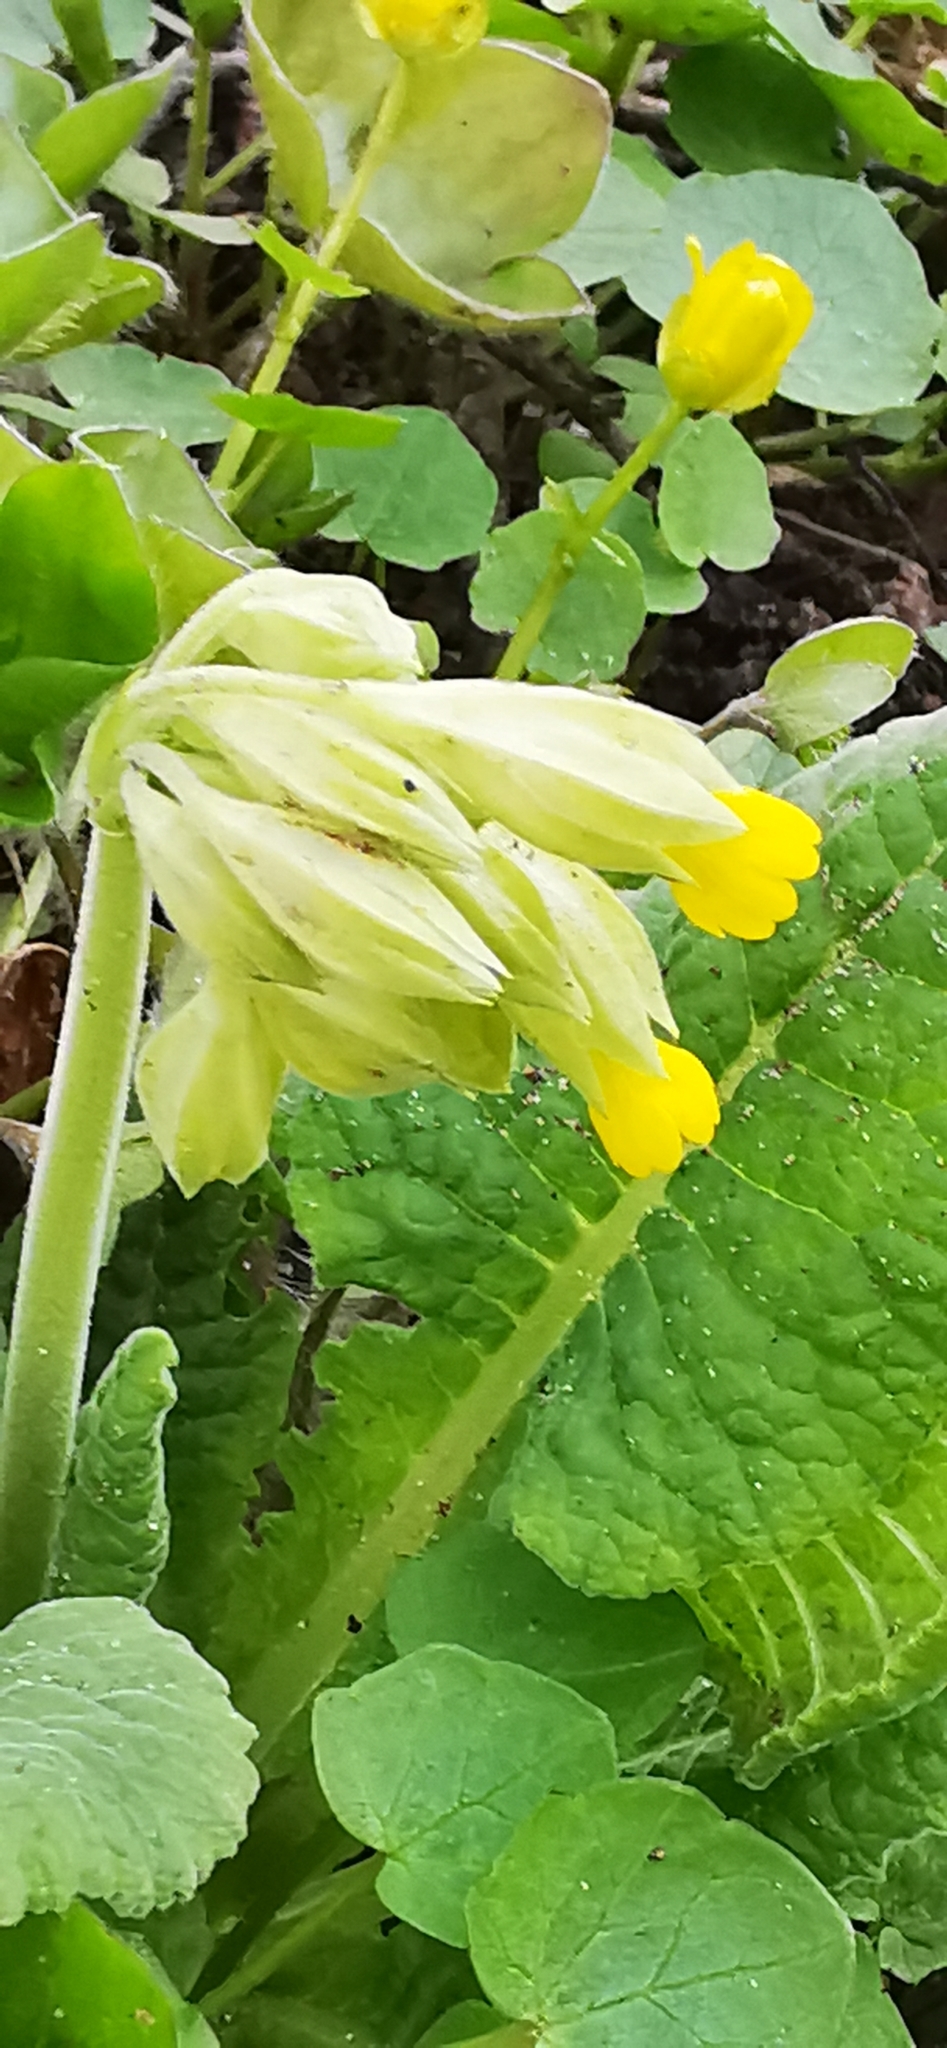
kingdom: Plantae
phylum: Tracheophyta
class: Magnoliopsida
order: Ericales
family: Primulaceae
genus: Primula
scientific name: Primula veris
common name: Cowslip
